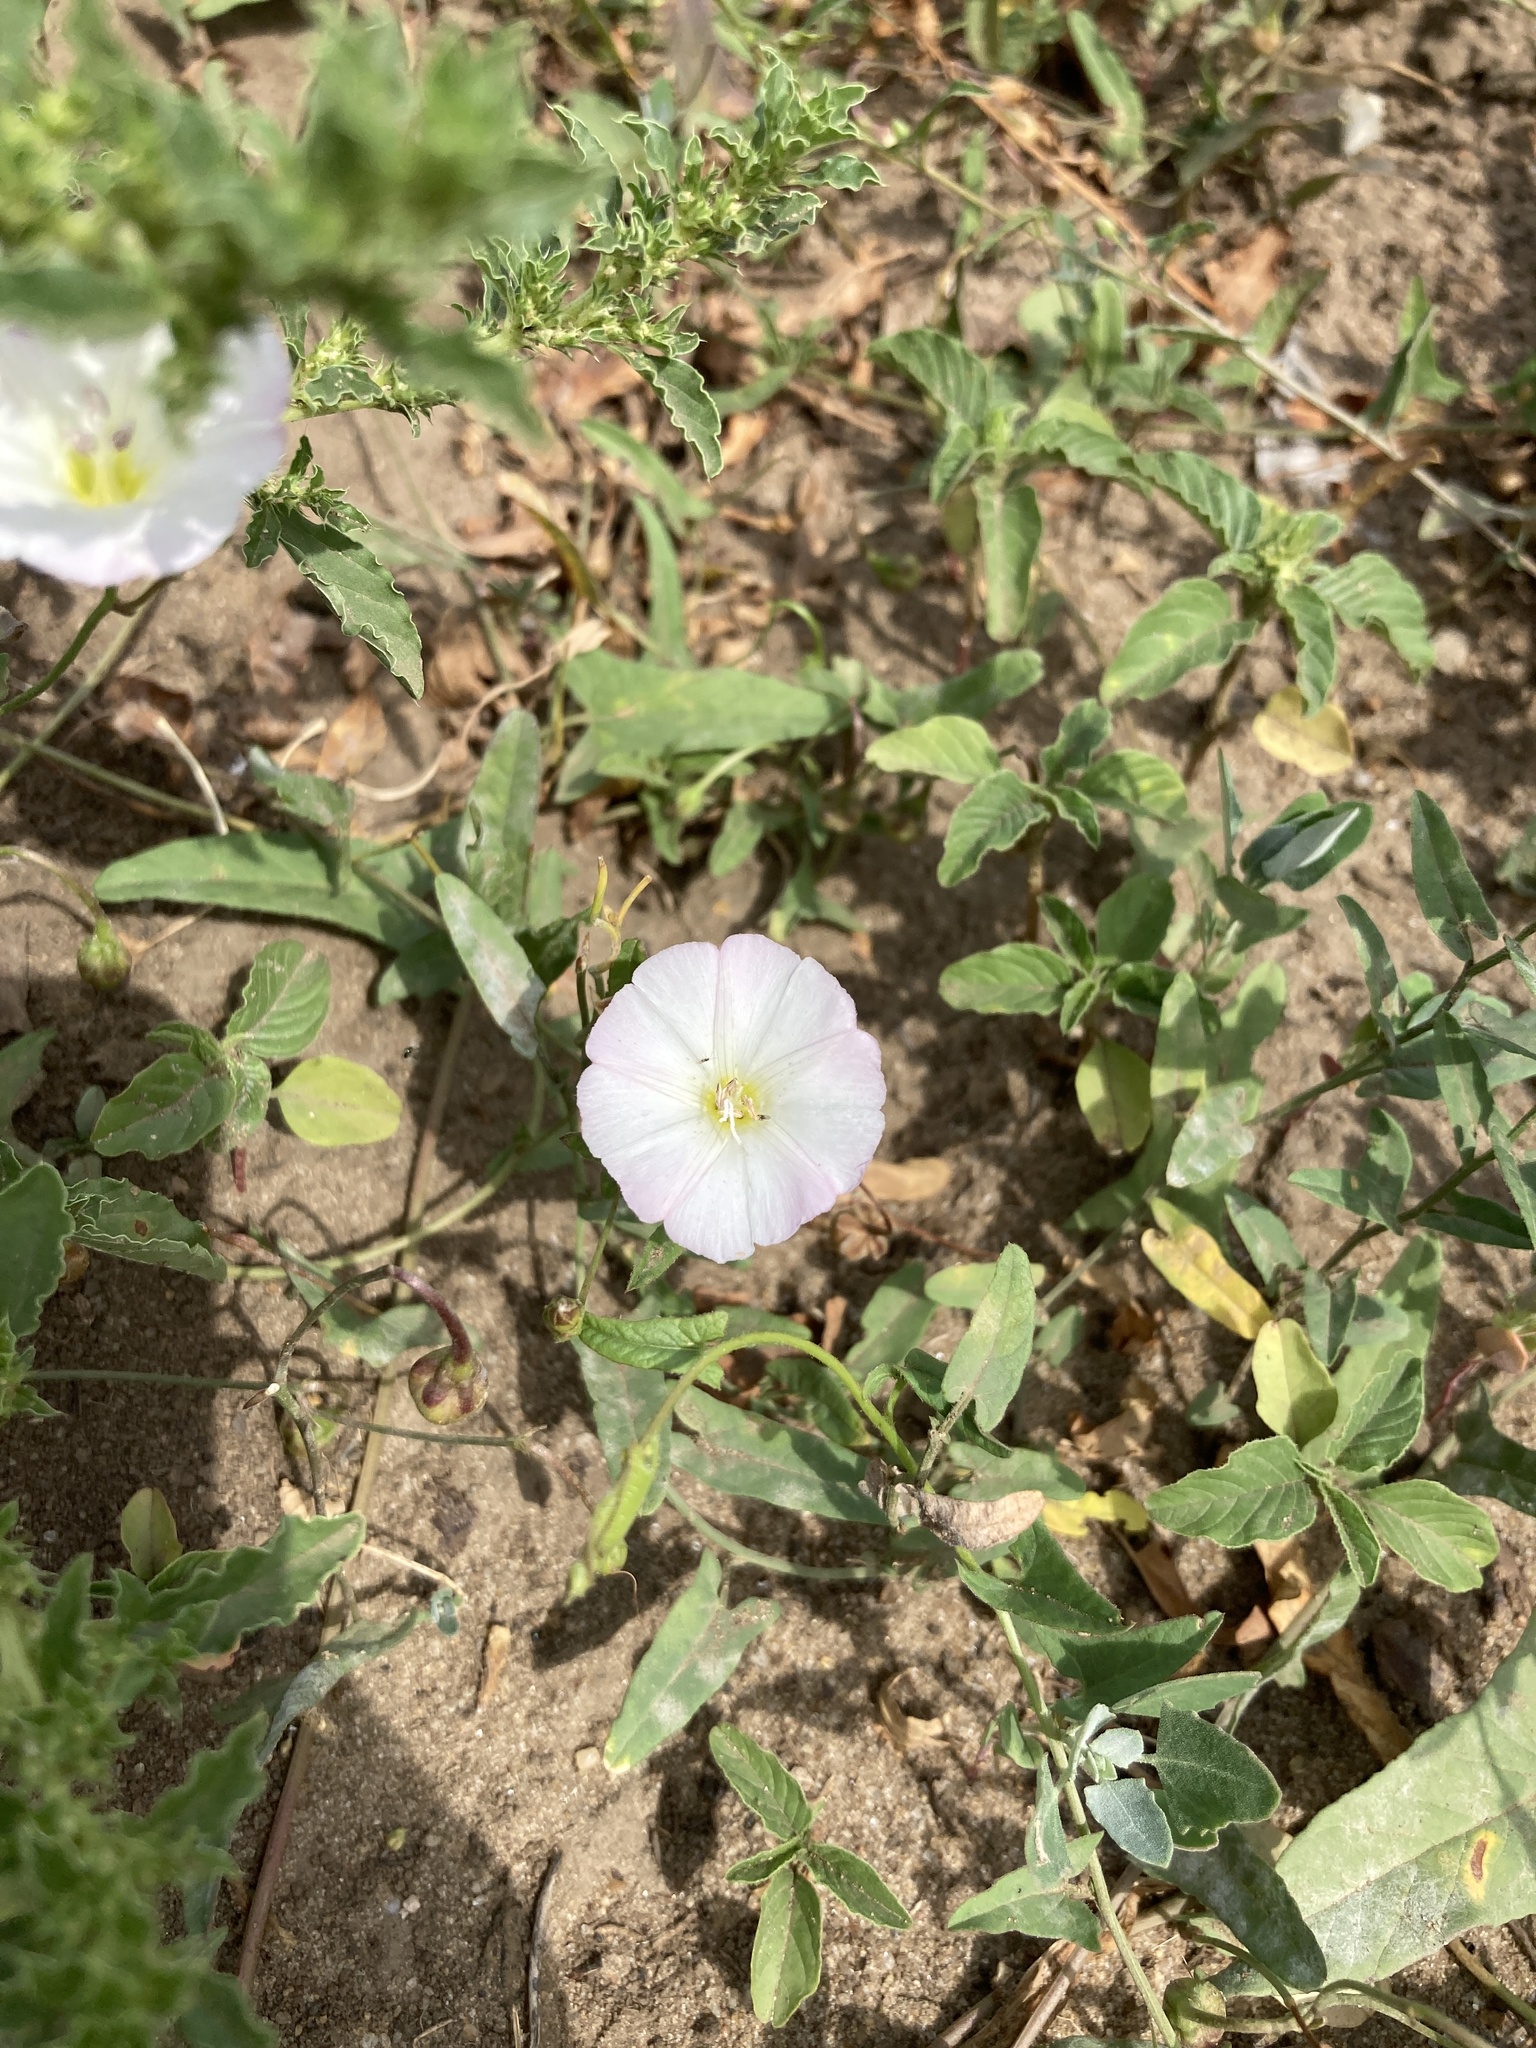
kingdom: Plantae
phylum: Tracheophyta
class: Magnoliopsida
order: Solanales
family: Convolvulaceae
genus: Convolvulus
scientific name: Convolvulus arvensis
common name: Field bindweed
